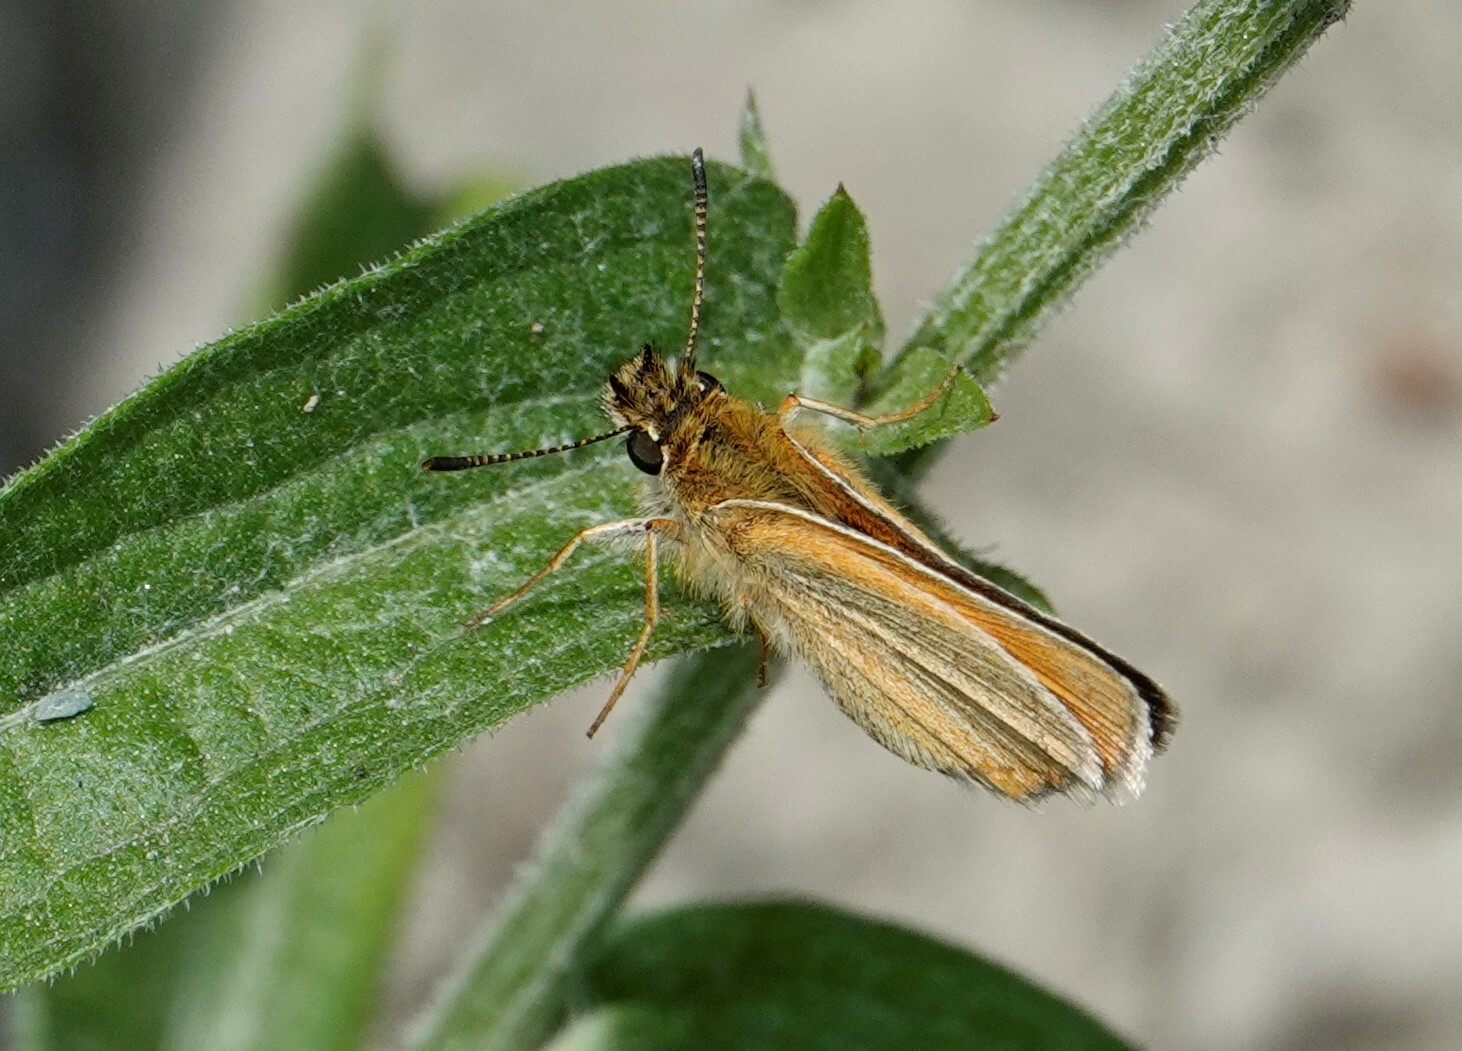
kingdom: Animalia
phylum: Arthropoda
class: Insecta
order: Lepidoptera
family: Hesperiidae
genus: Thymelicus
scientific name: Thymelicus lineola
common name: Essex skipper
